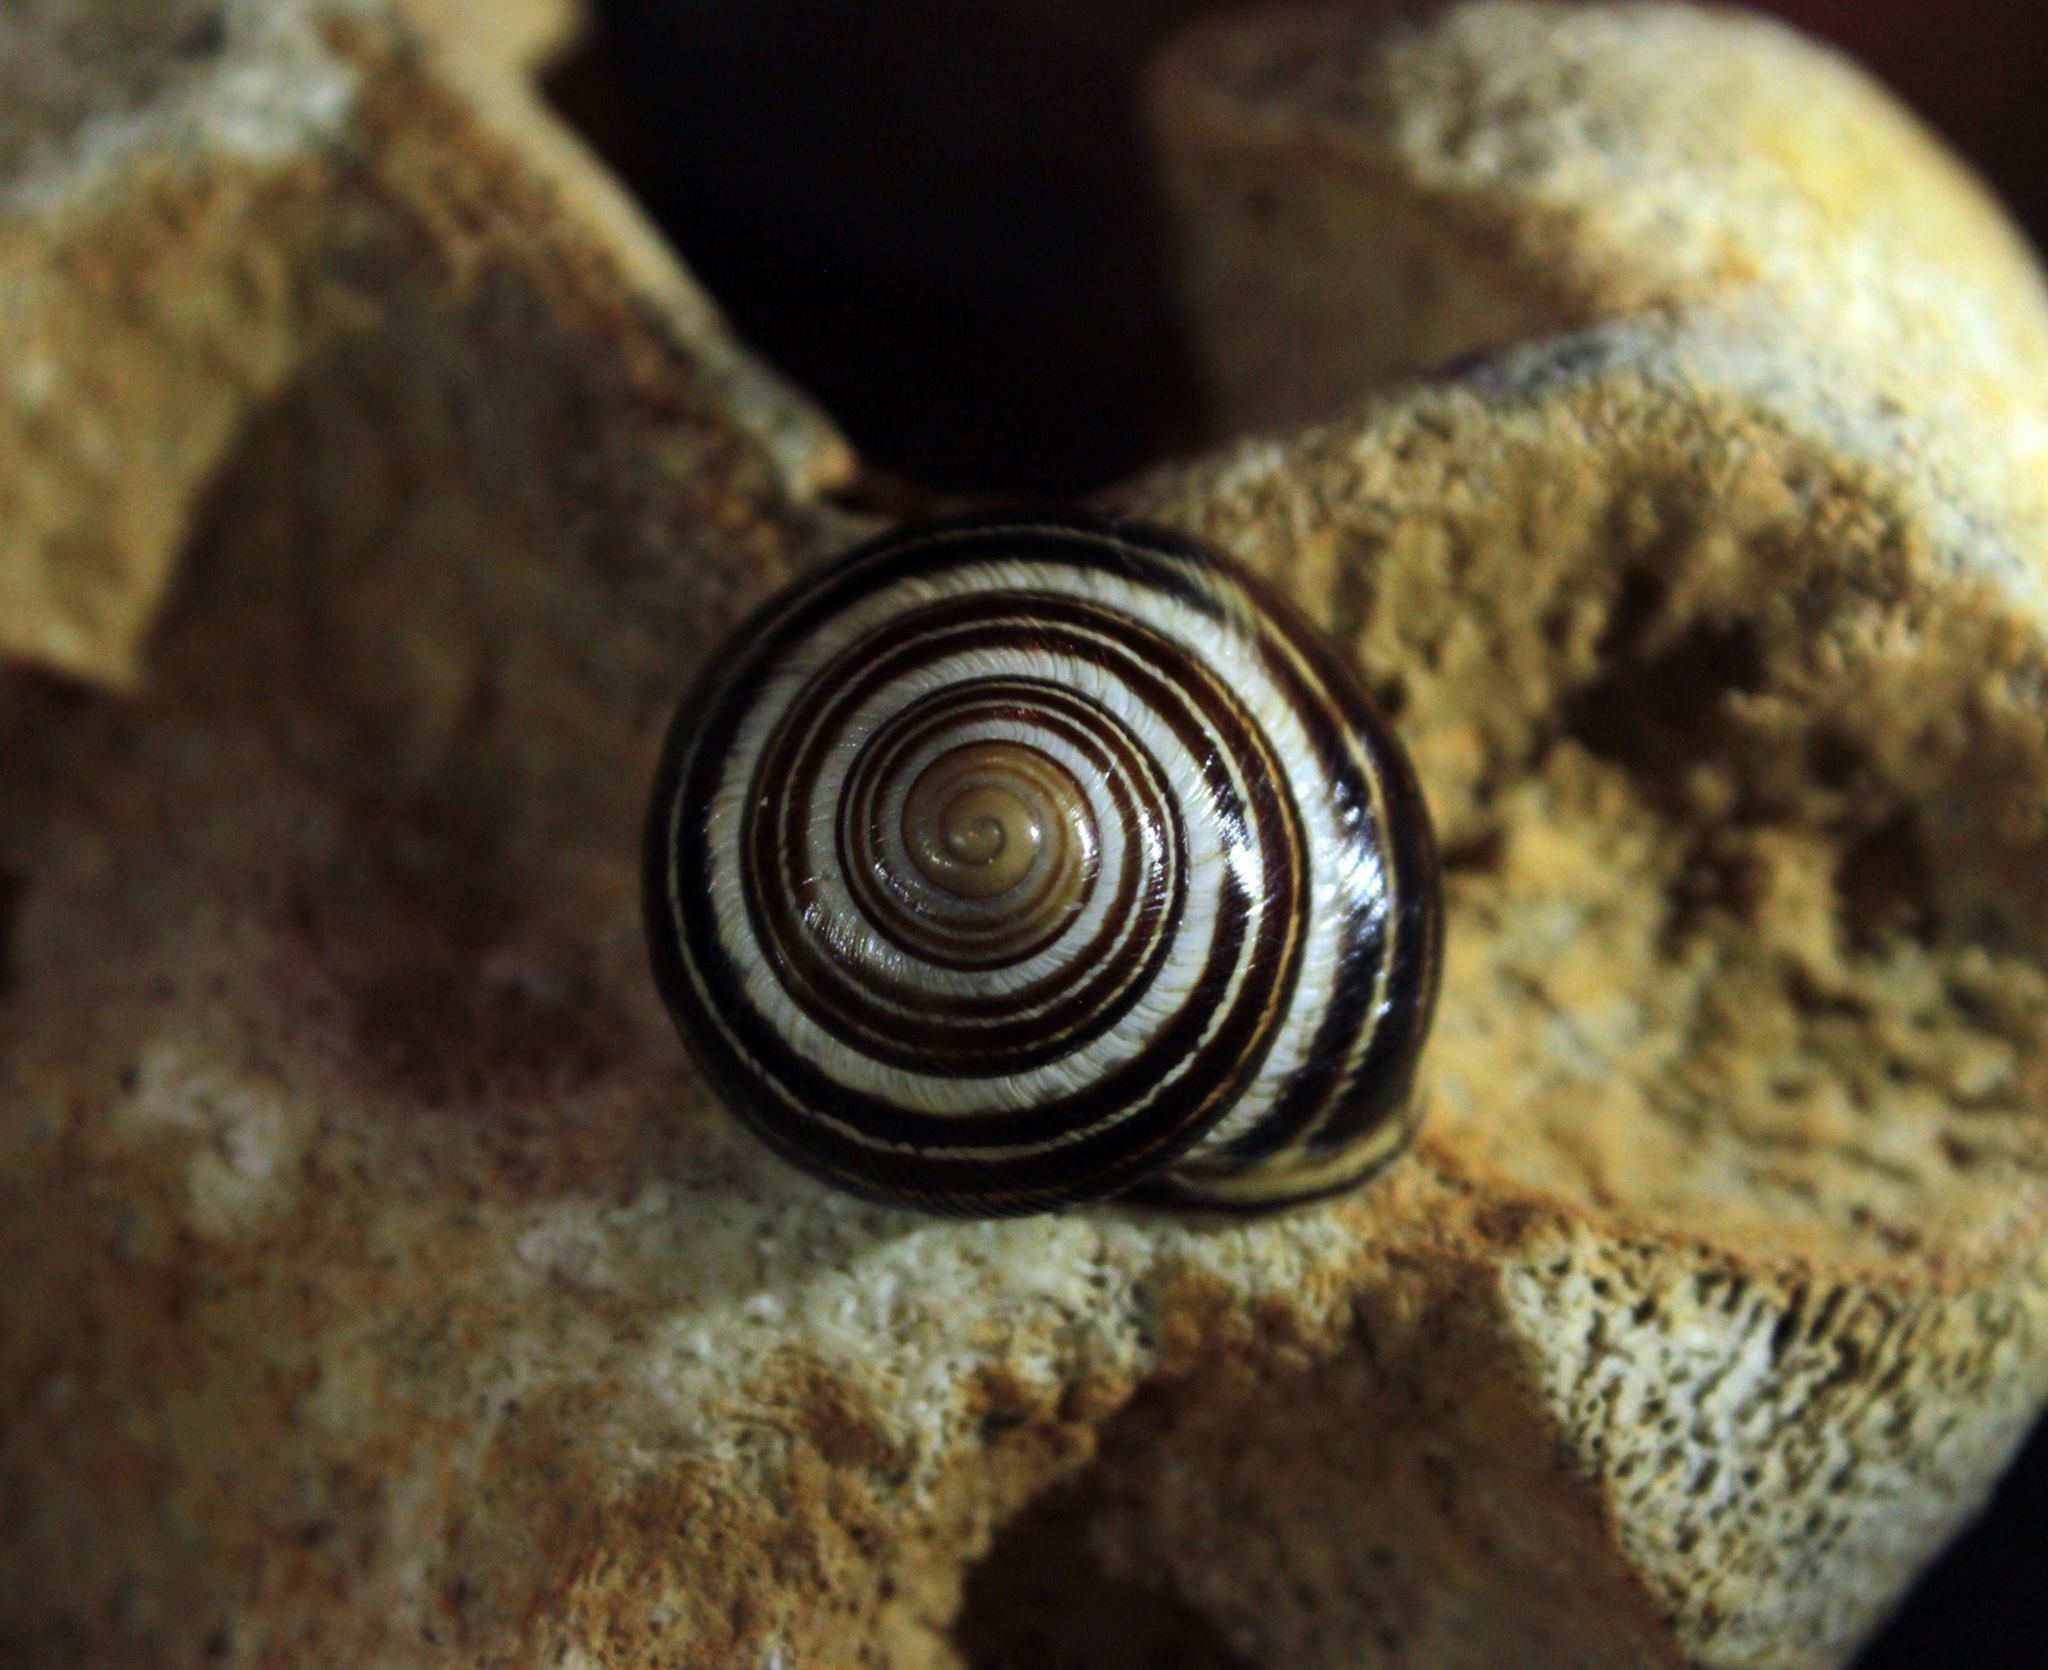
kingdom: Animalia
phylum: Mollusca
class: Gastropoda
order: Stylommatophora
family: Helicidae
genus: Caucasotachea
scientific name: Caucasotachea vindobonensis
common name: European helicid land snail
